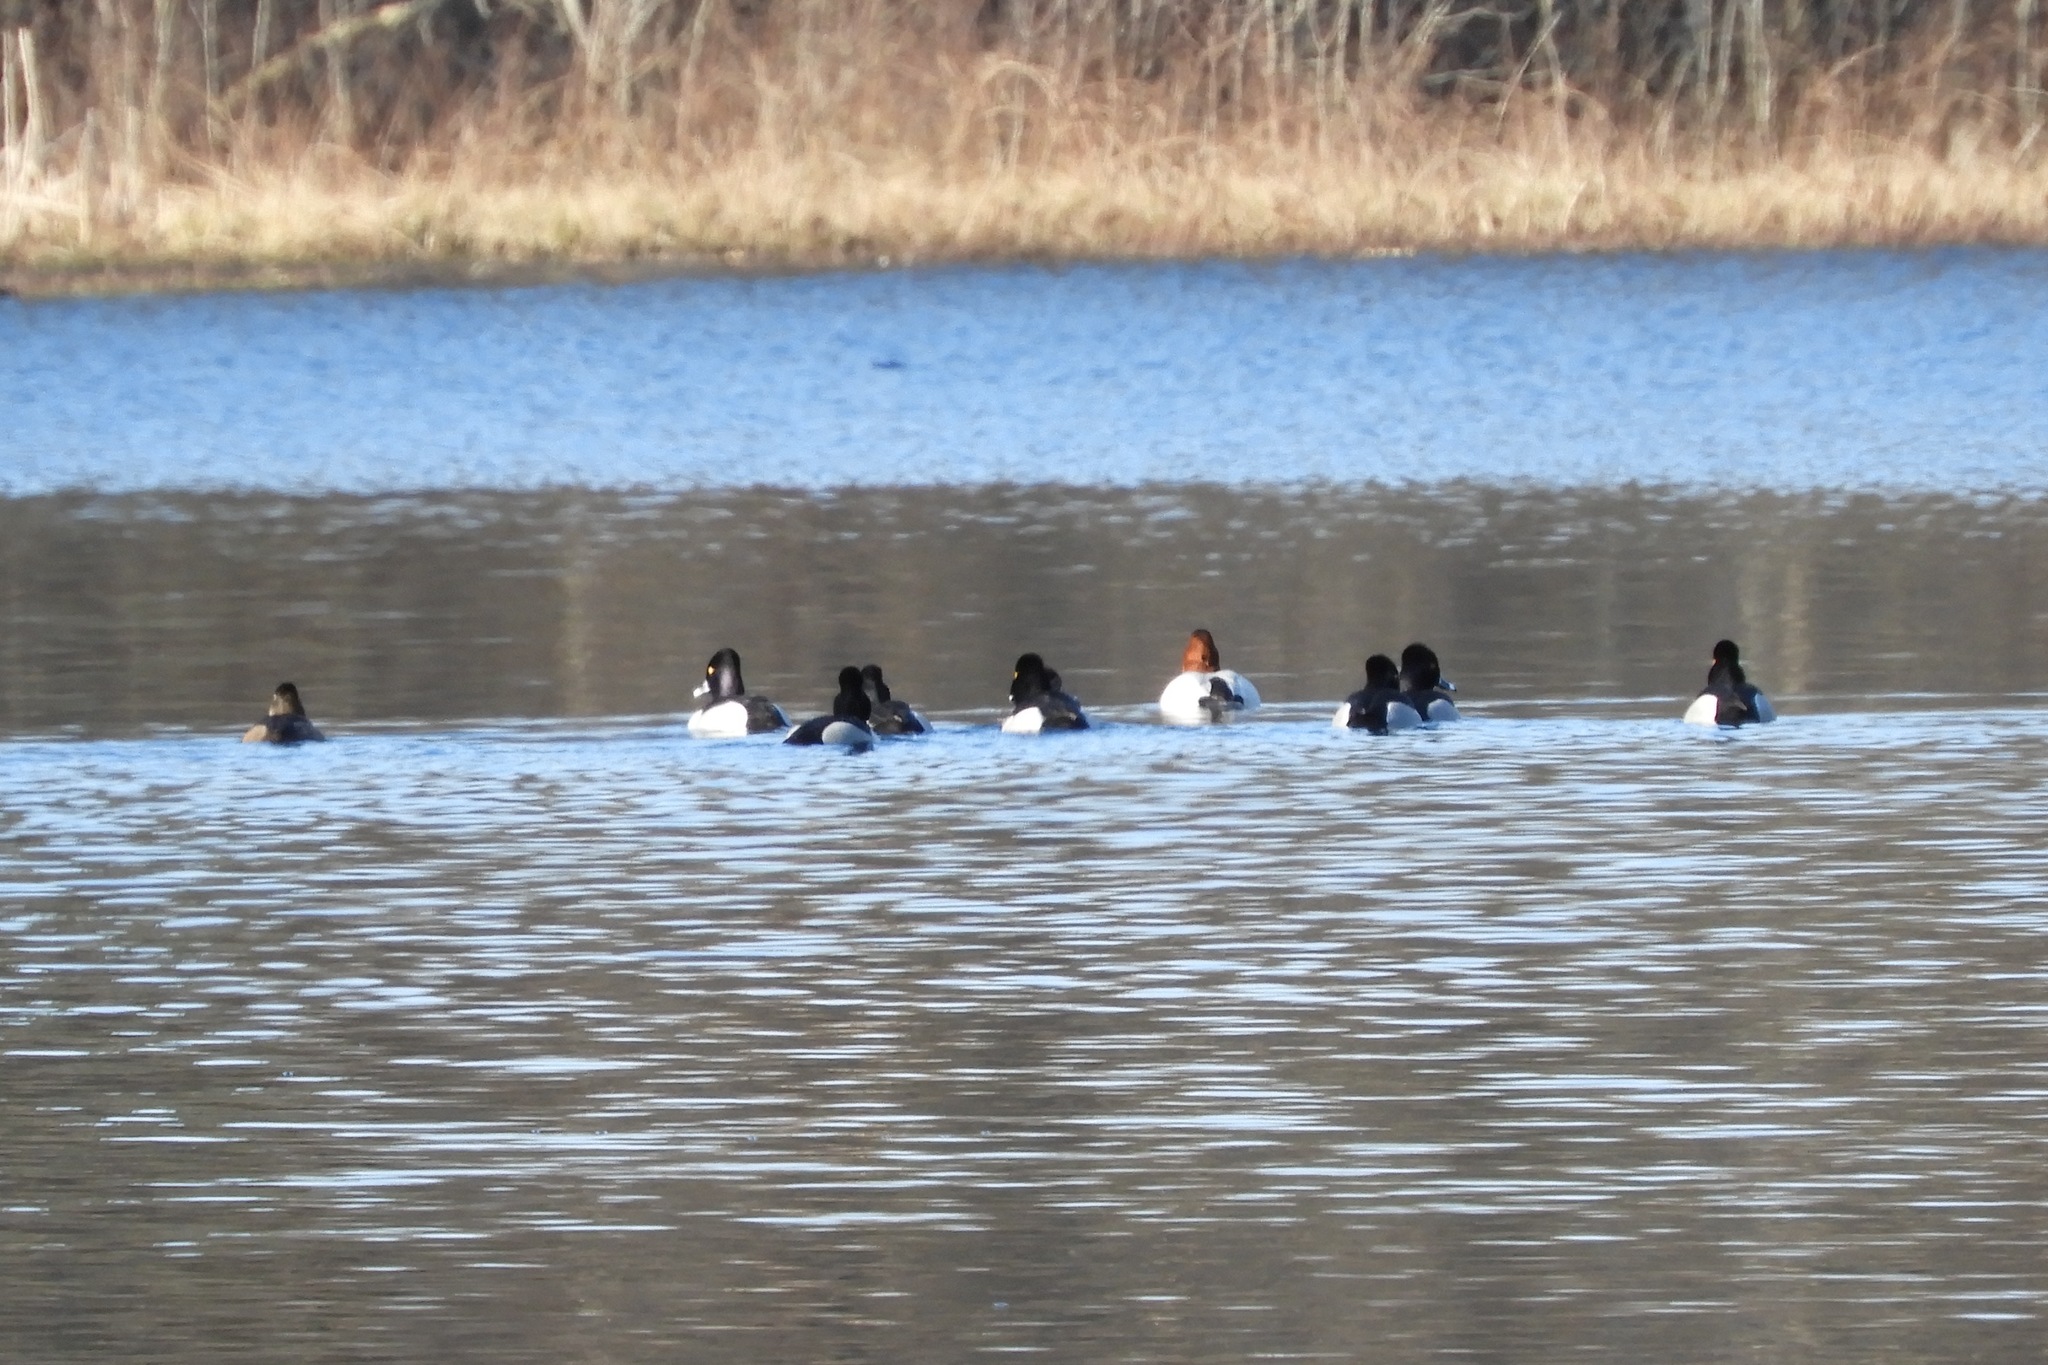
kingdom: Animalia
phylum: Chordata
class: Aves
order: Anseriformes
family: Anatidae
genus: Aythya
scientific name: Aythya collaris
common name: Ring-necked duck
